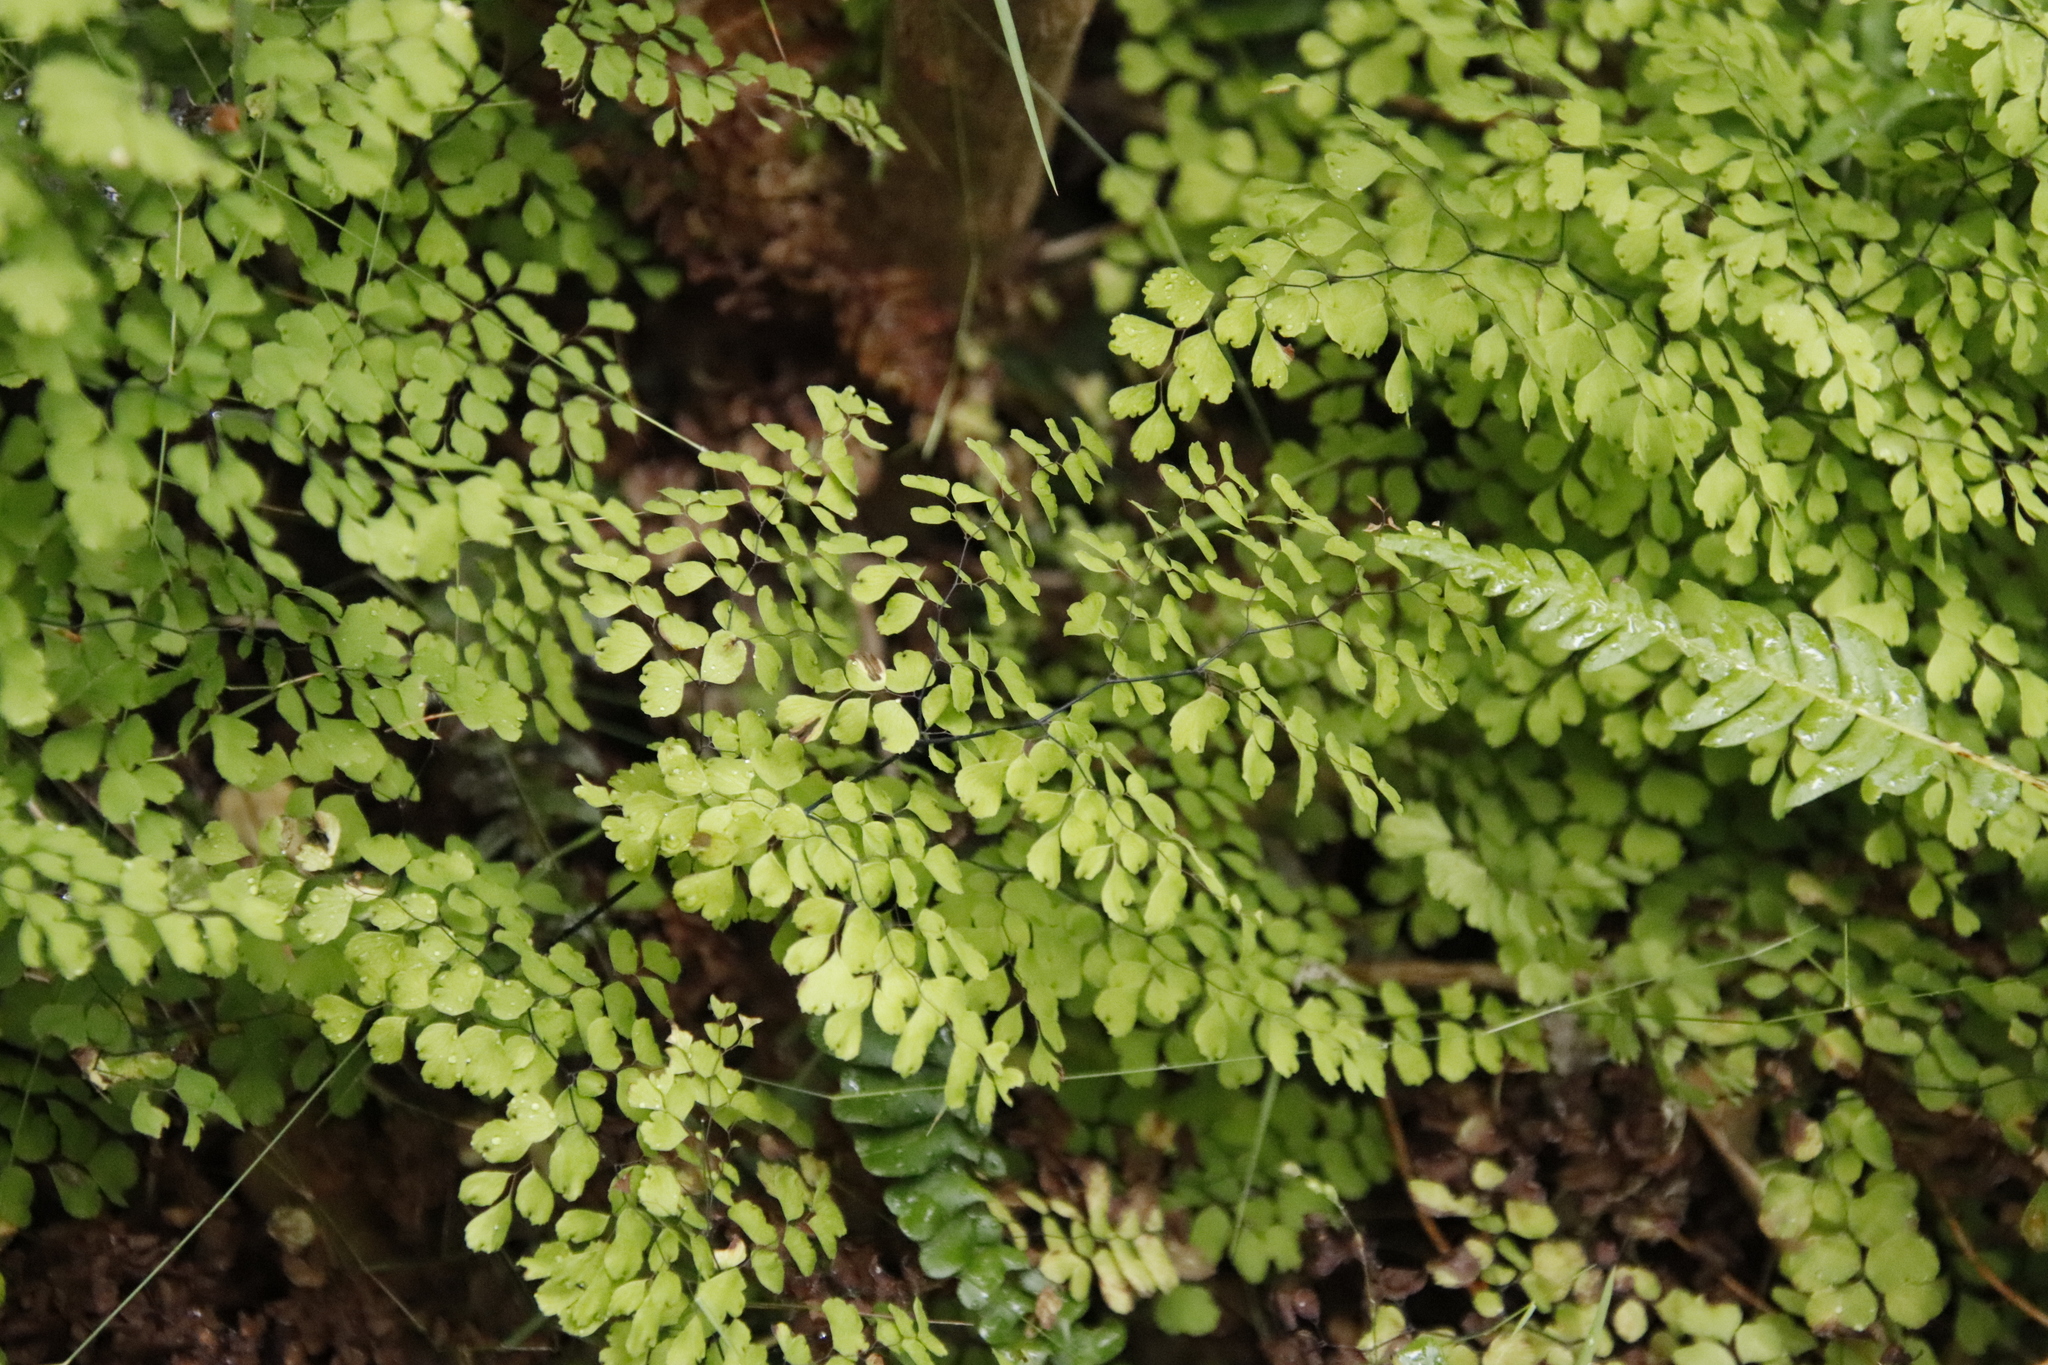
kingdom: Plantae
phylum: Tracheophyta
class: Polypodiopsida
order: Polypodiales
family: Pteridaceae
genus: Adiantum
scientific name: Adiantum aethiopicum
